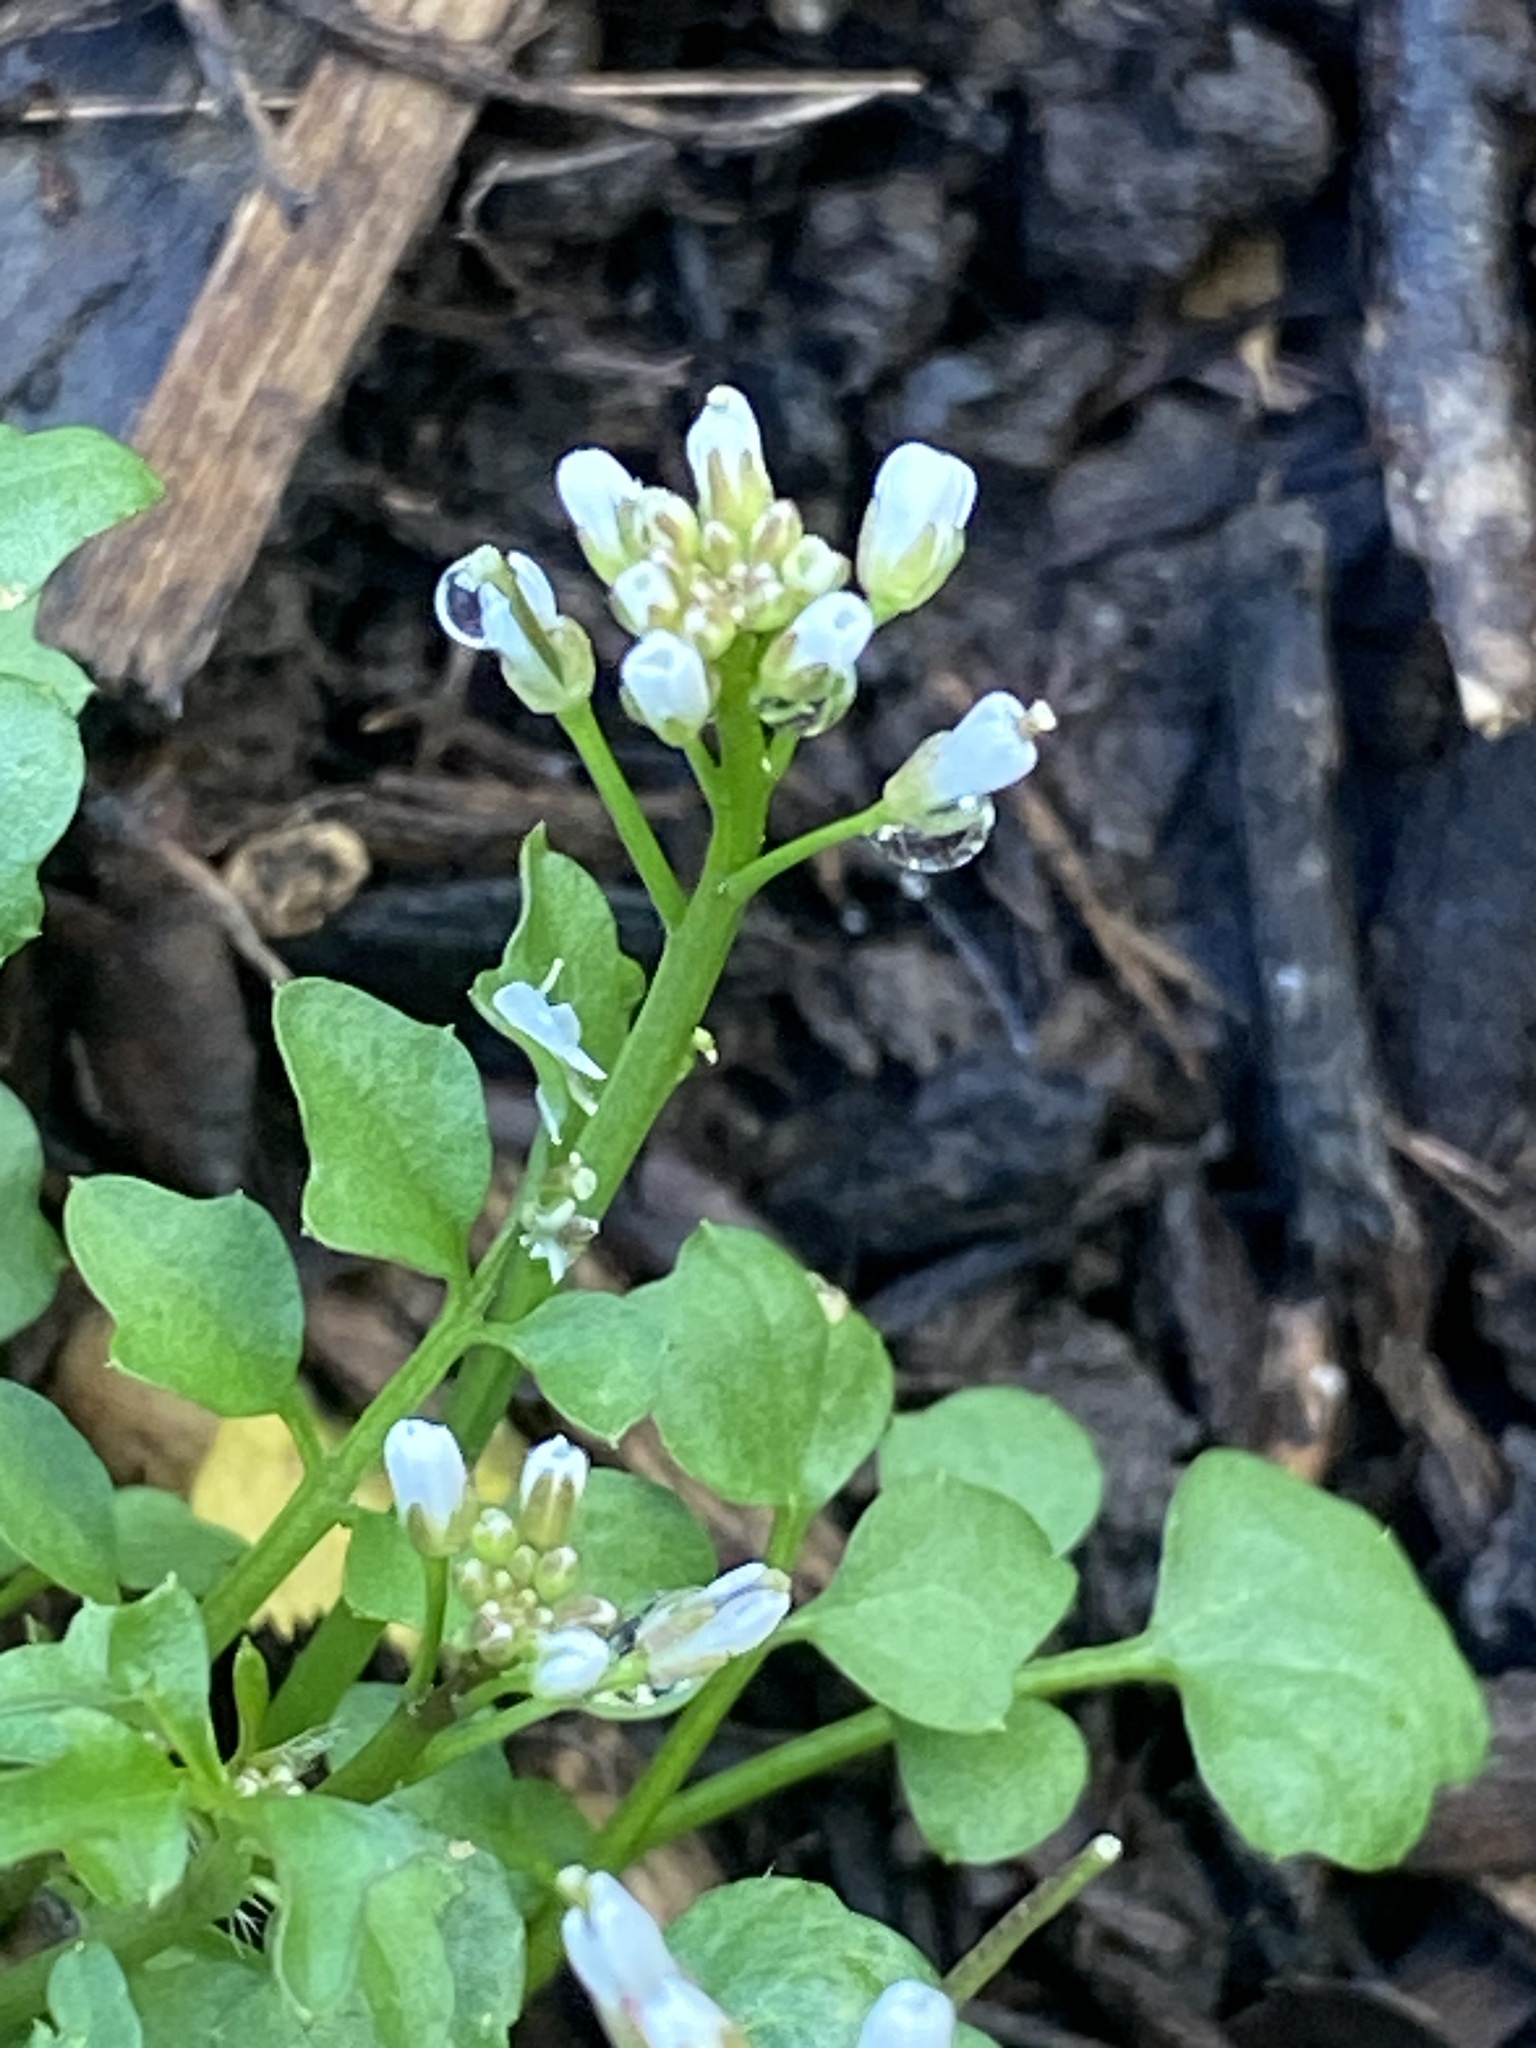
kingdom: Plantae
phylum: Tracheophyta
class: Magnoliopsida
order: Brassicales
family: Brassicaceae
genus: Cardamine
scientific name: Cardamine hirsuta
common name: Hairy bittercress
